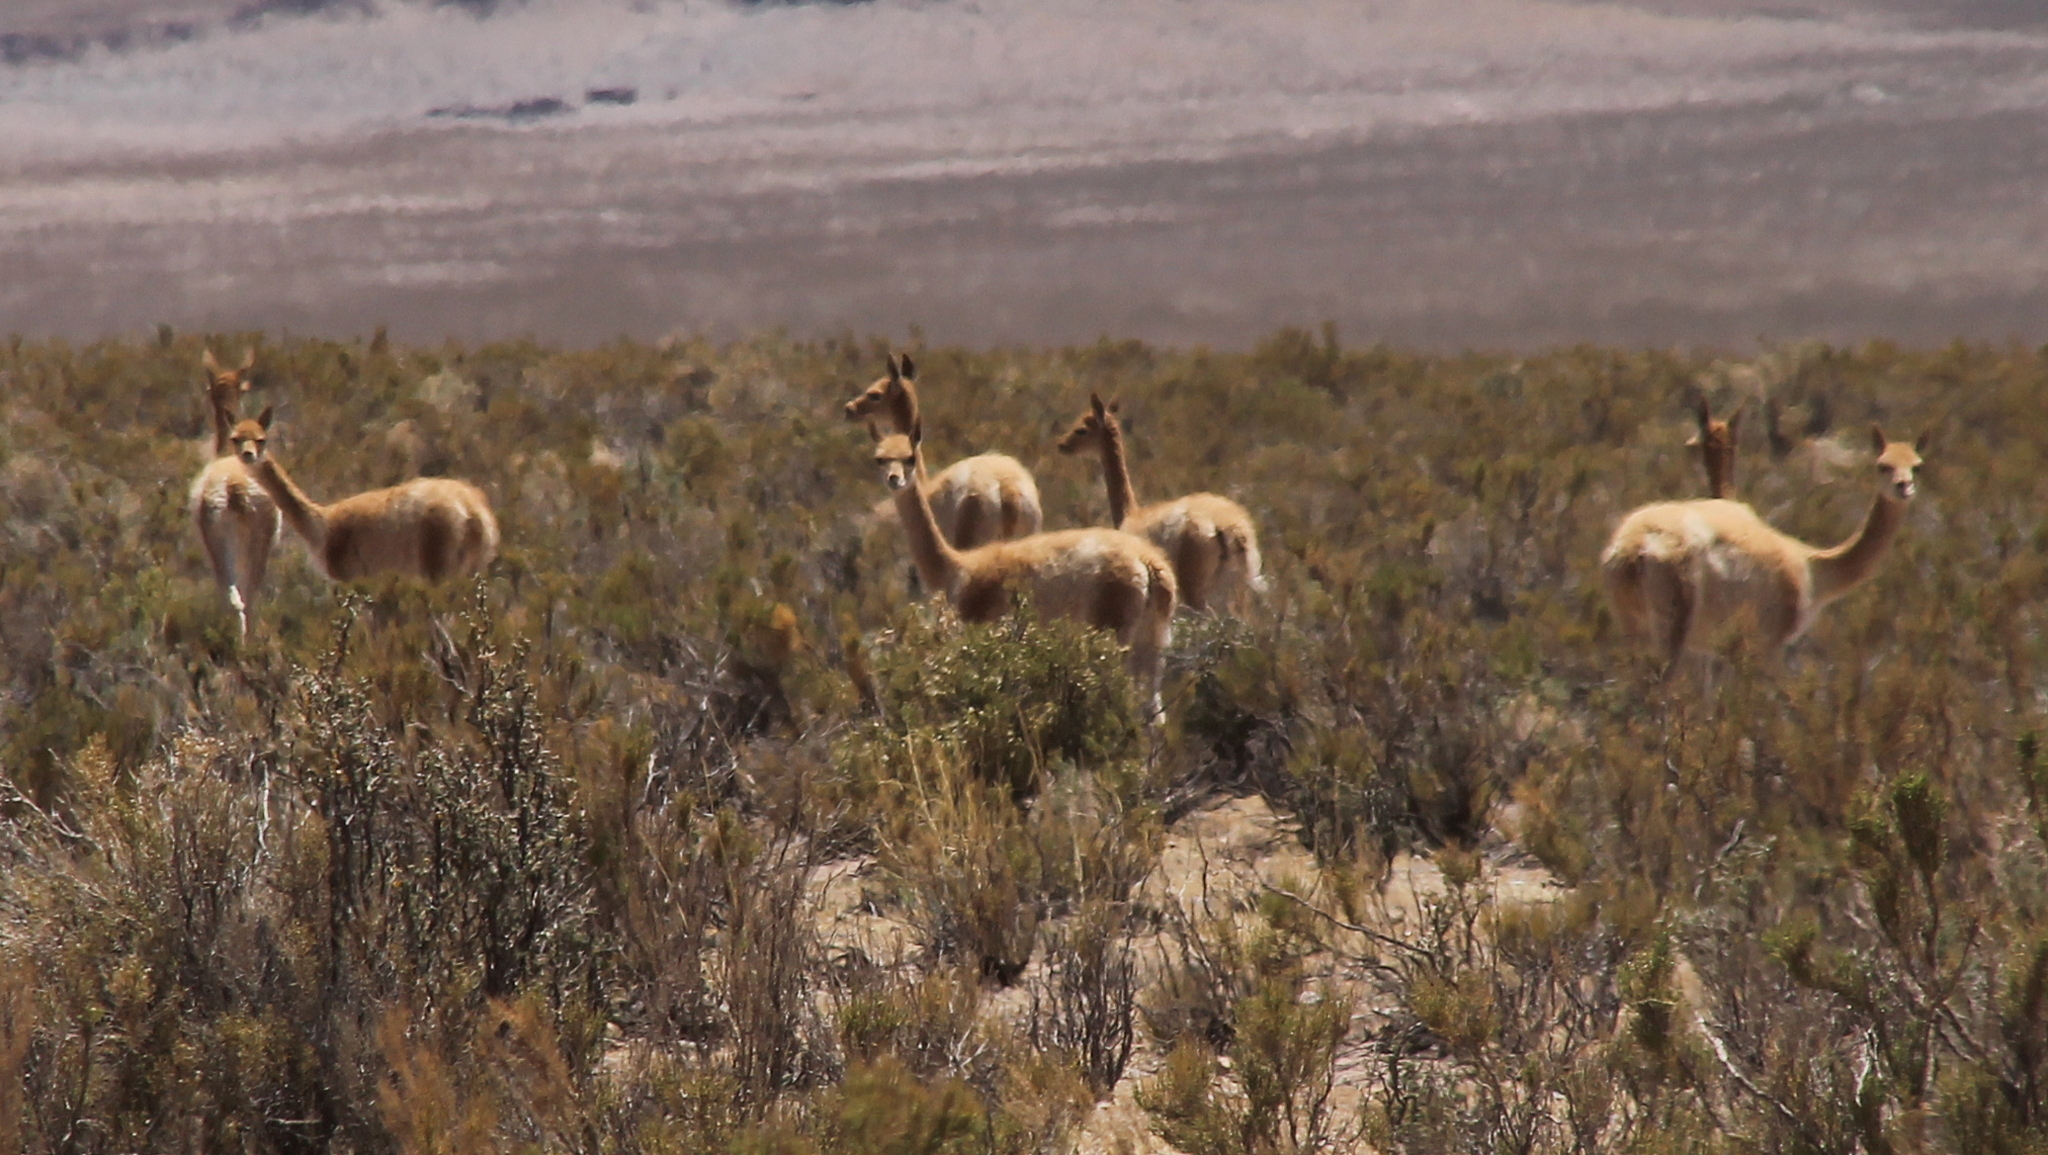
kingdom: Animalia
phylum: Chordata
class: Mammalia
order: Artiodactyla
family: Camelidae
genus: Vicugna
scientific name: Vicugna vicugna
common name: Vicugna
